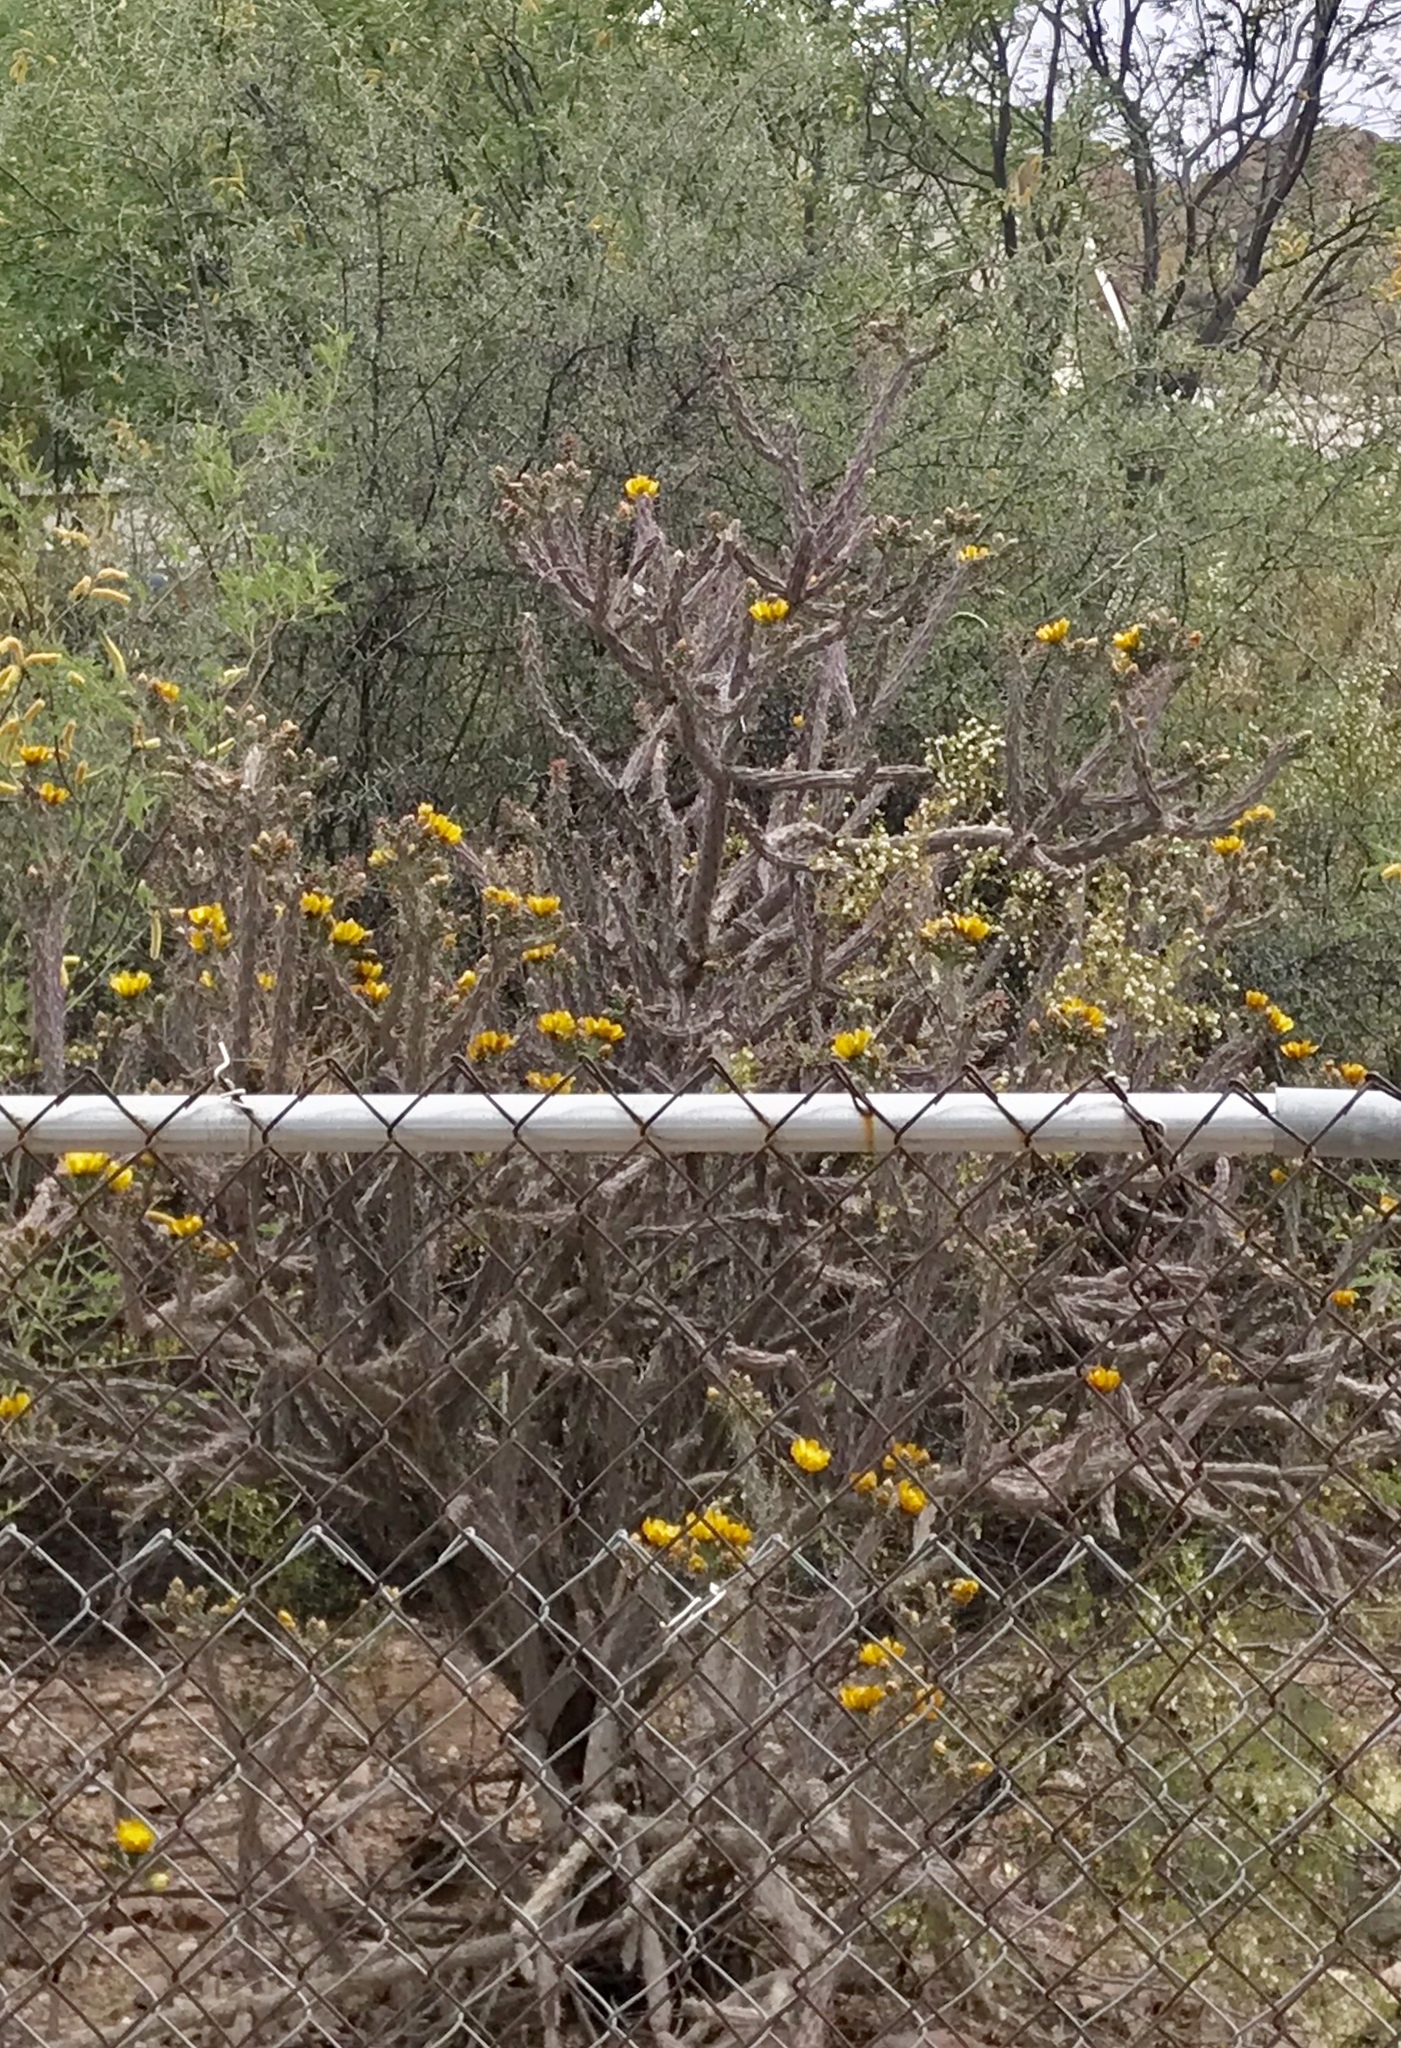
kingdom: Plantae
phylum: Tracheophyta
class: Magnoliopsida
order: Caryophyllales
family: Cactaceae
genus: Cylindropuntia
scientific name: Cylindropuntia thurberi
